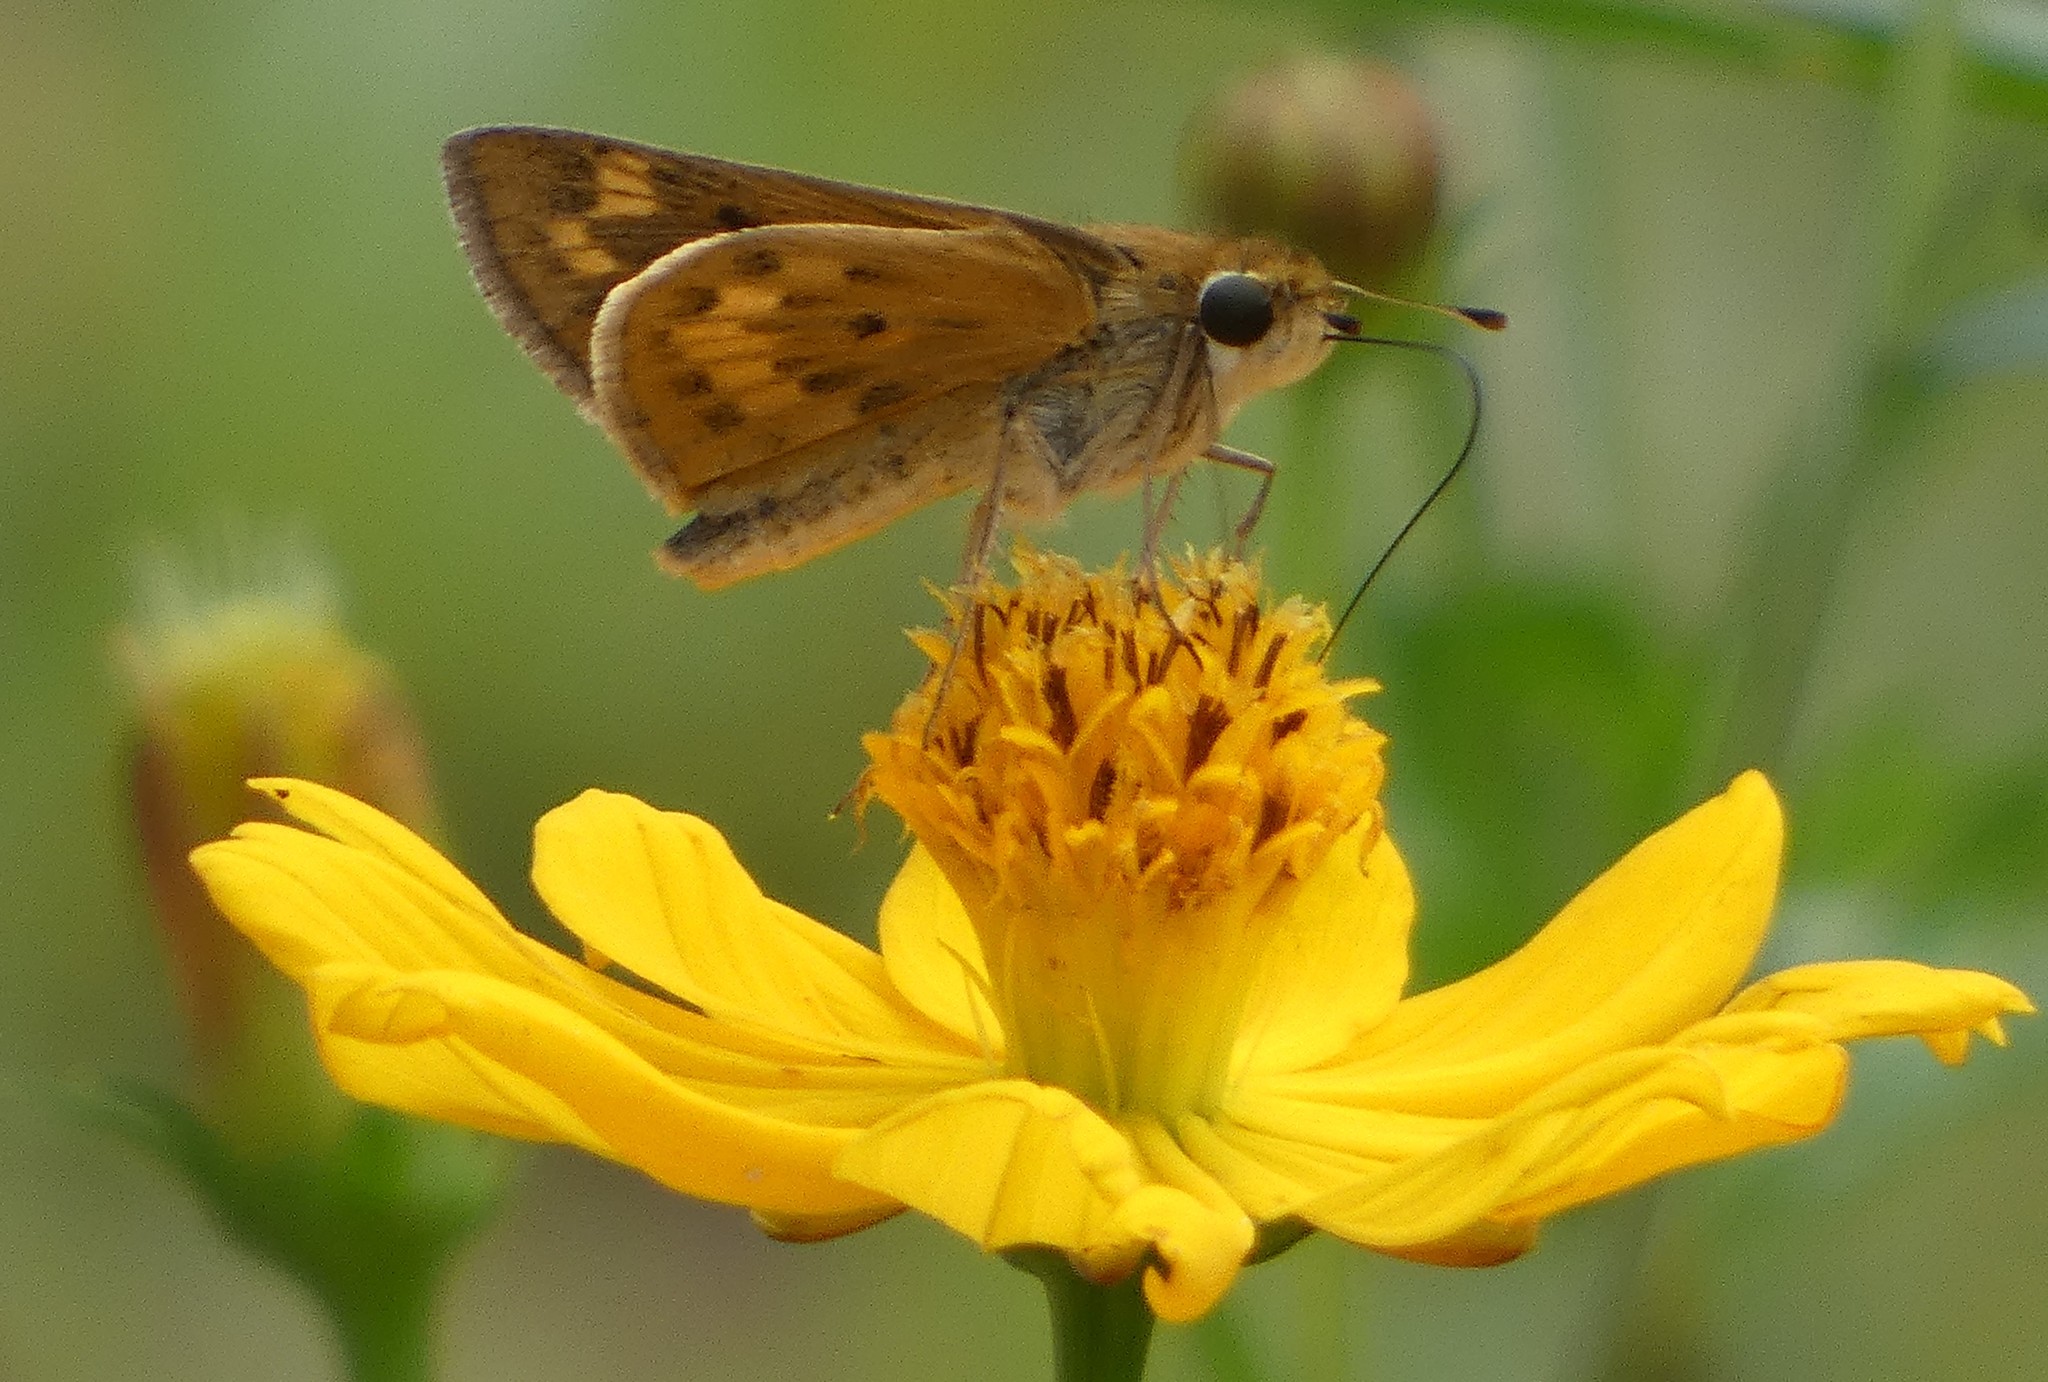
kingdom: Animalia
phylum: Arthropoda
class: Insecta
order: Lepidoptera
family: Hesperiidae
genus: Hylephila
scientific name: Hylephila phyleus
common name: Fiery skipper
